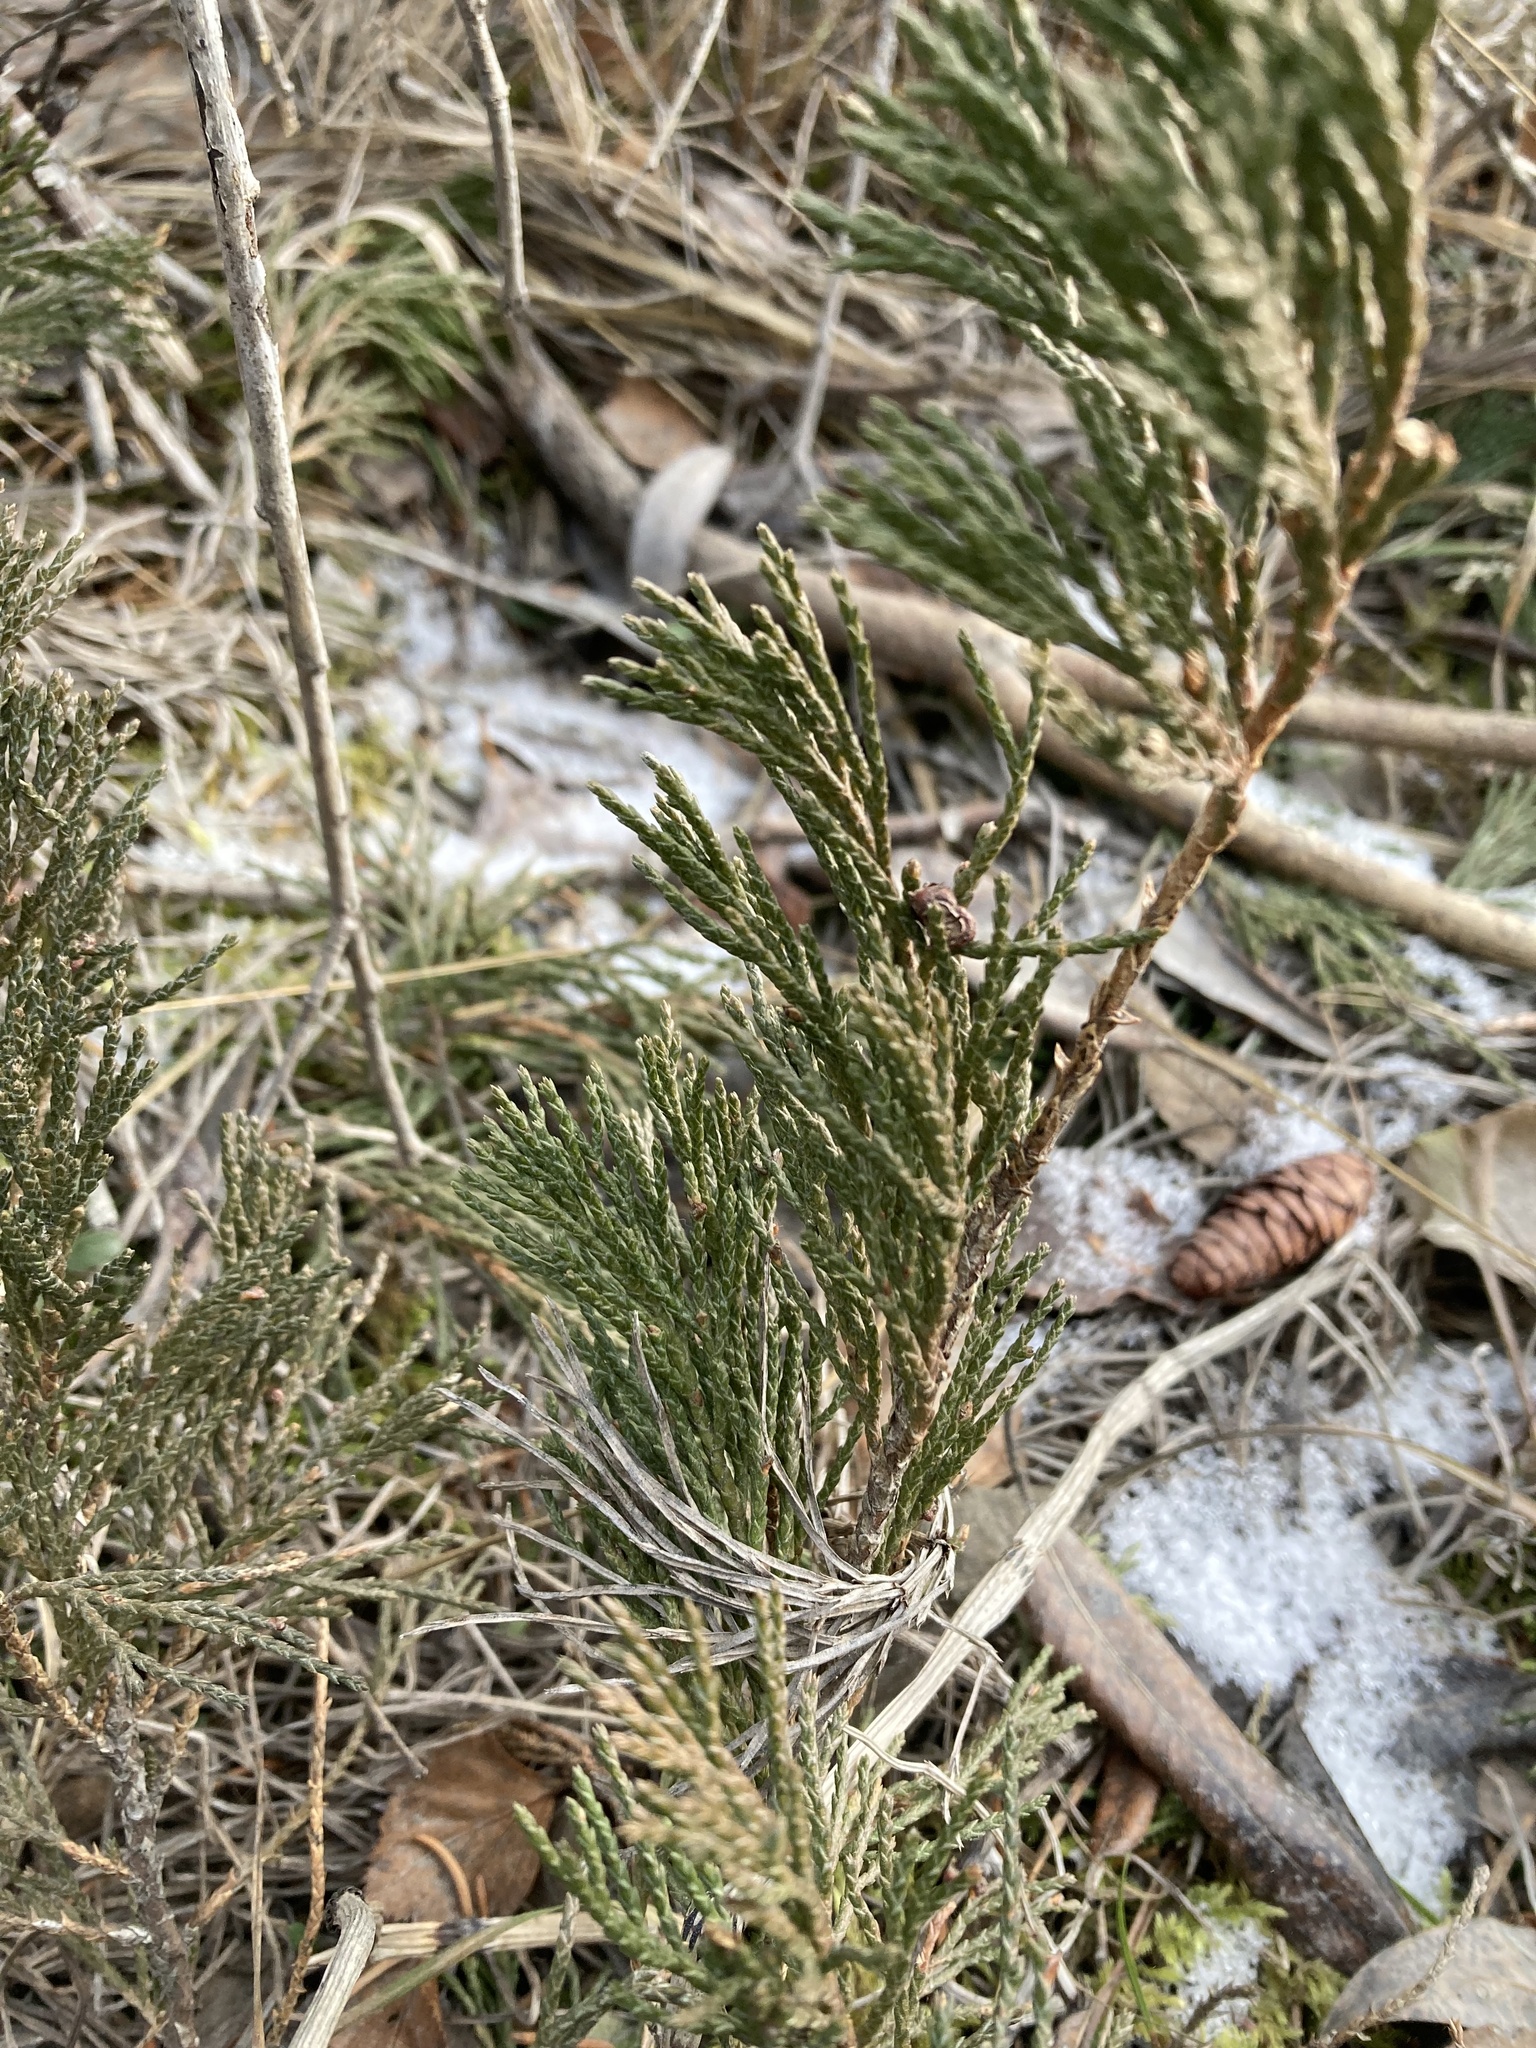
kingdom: Plantae
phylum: Tracheophyta
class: Pinopsida
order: Pinales
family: Cupressaceae
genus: Juniperus
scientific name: Juniperus horizontalis
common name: Creeping juniper
